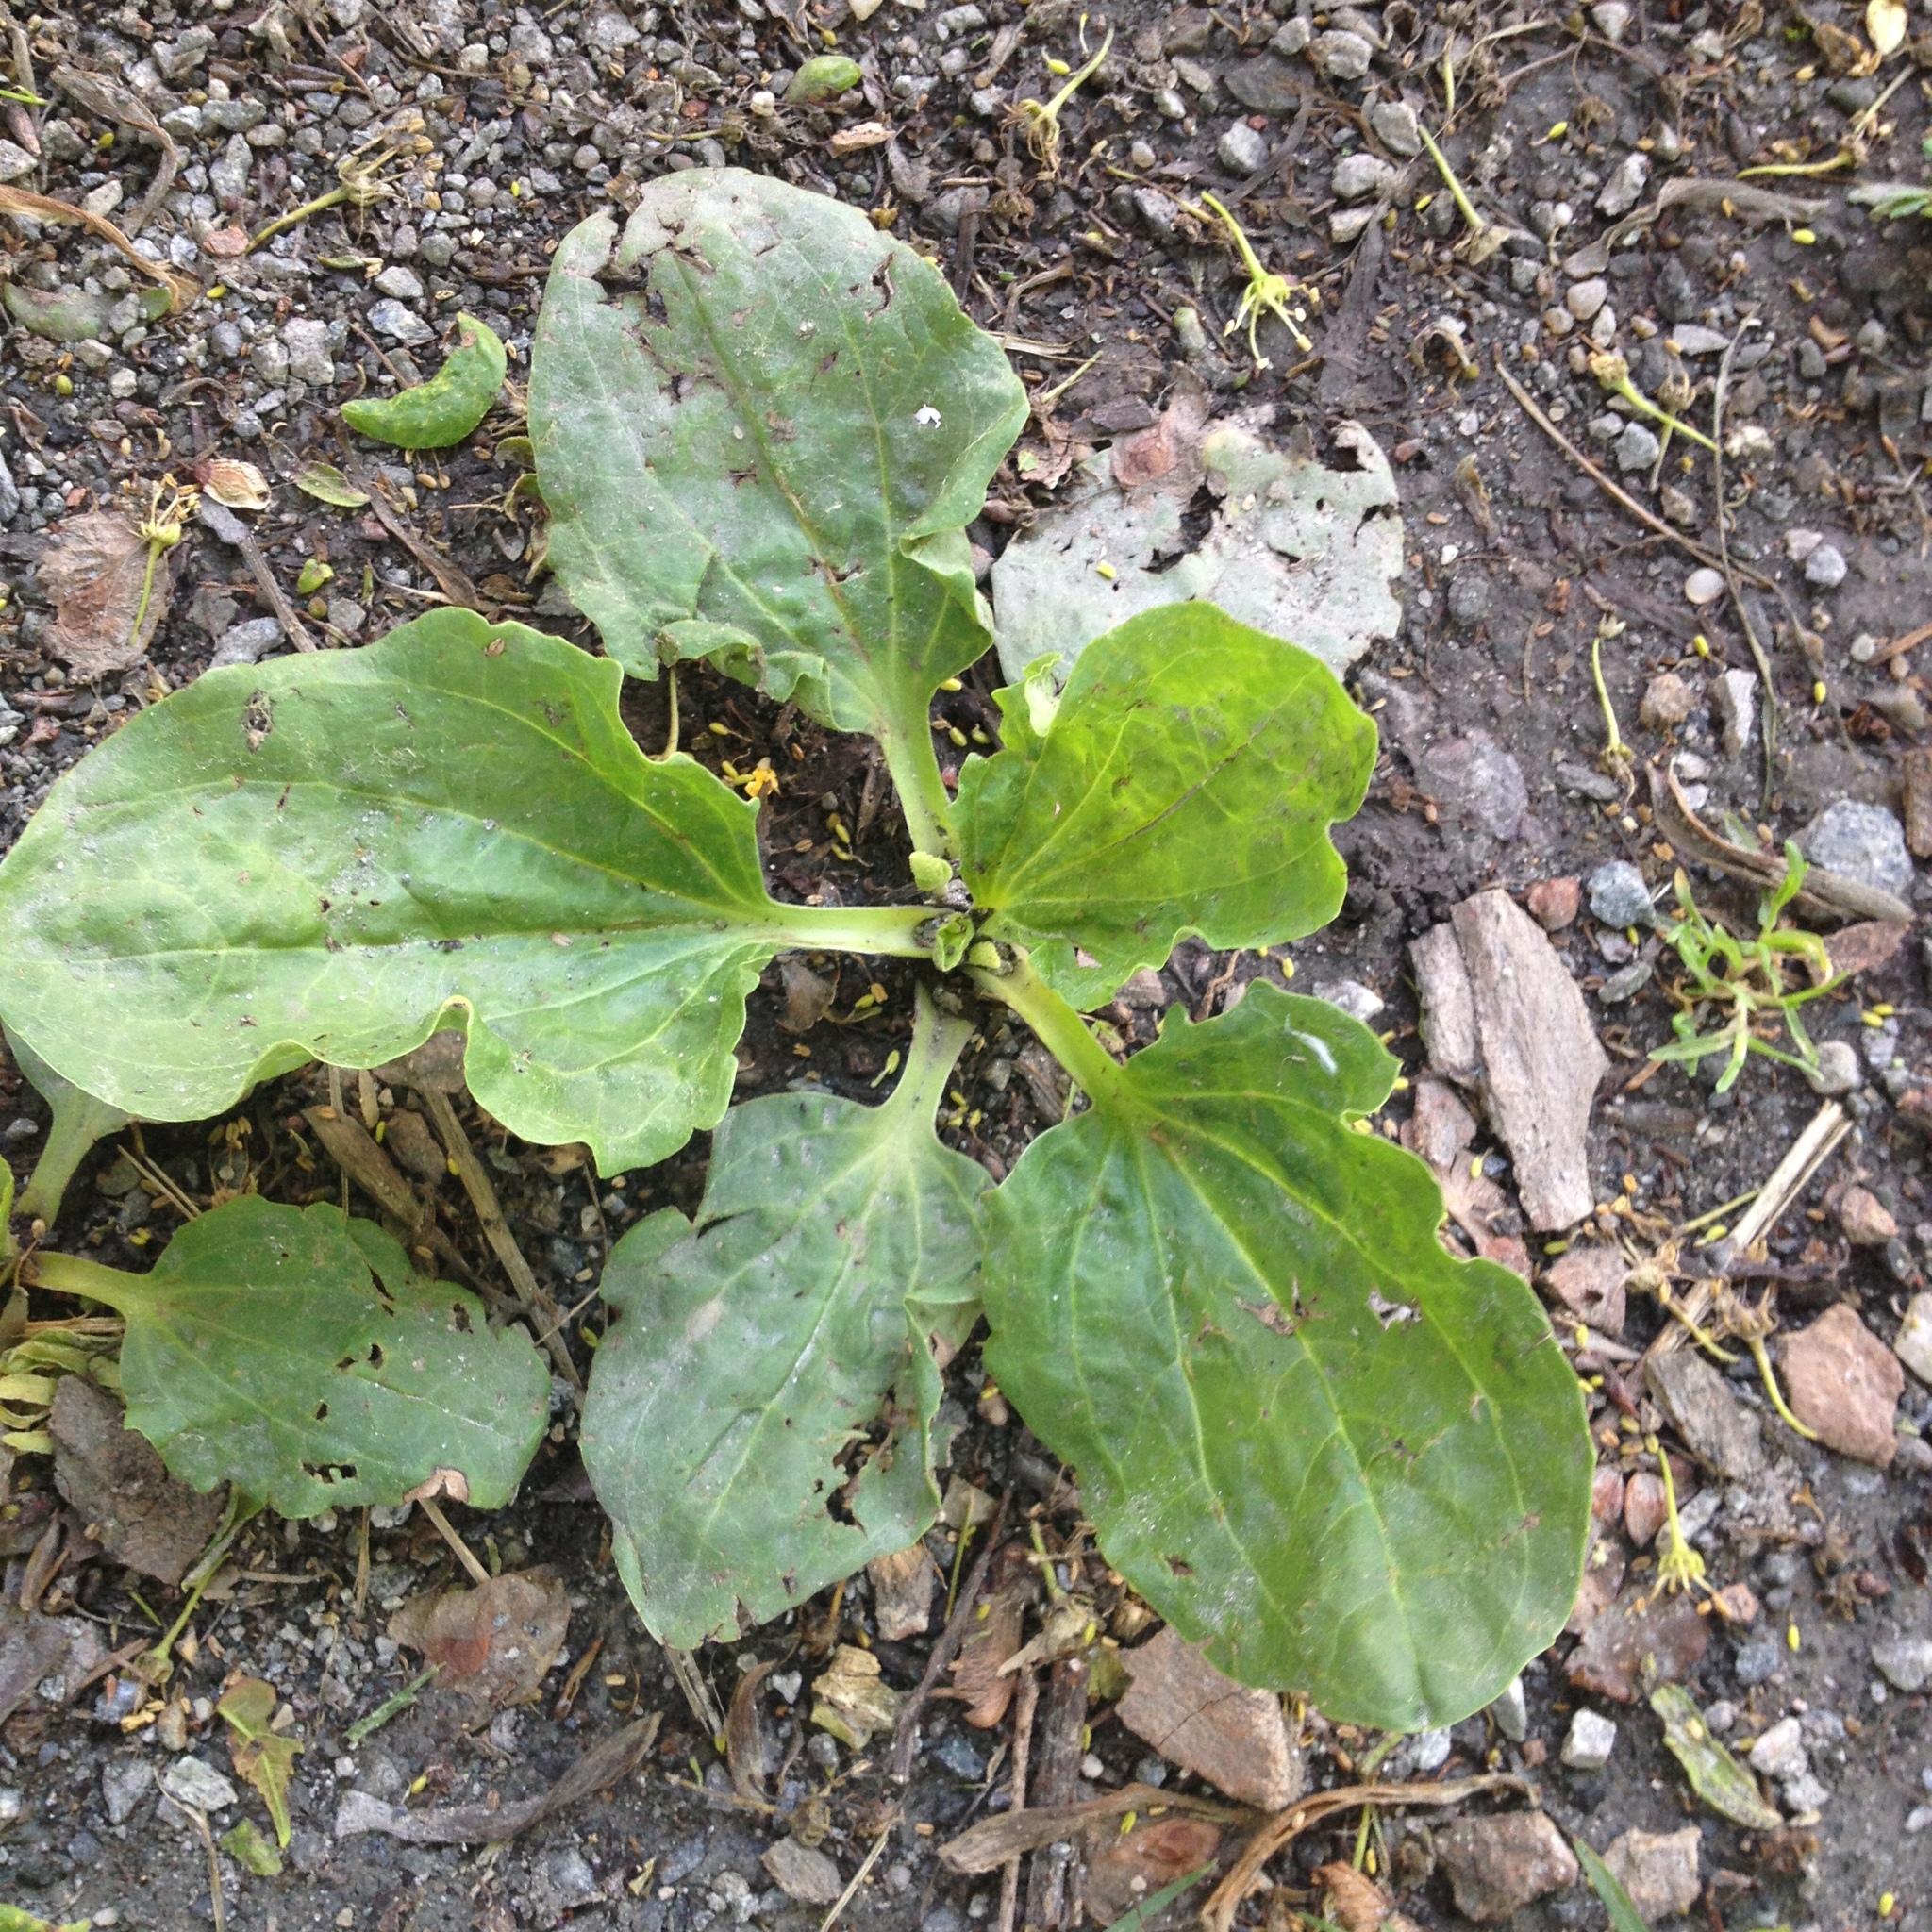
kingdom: Plantae
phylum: Tracheophyta
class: Magnoliopsida
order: Lamiales
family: Plantaginaceae
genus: Plantago
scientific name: Plantago major
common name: Common plantain
